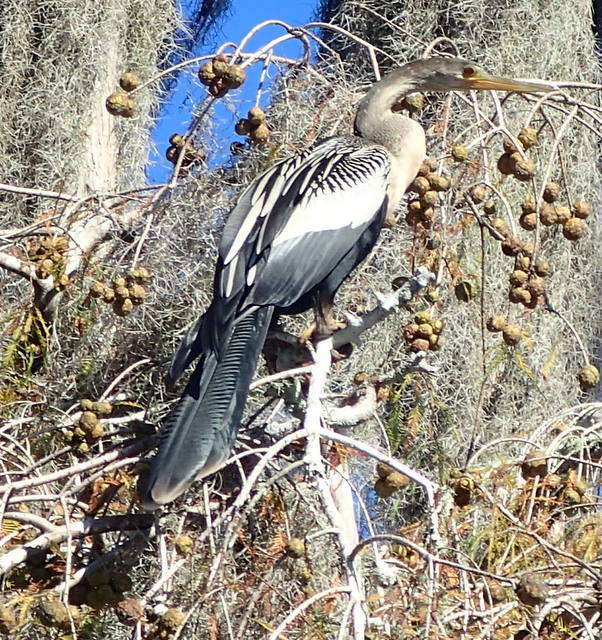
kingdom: Animalia
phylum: Chordata
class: Aves
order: Suliformes
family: Anhingidae
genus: Anhinga
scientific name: Anhinga anhinga
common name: Anhinga
